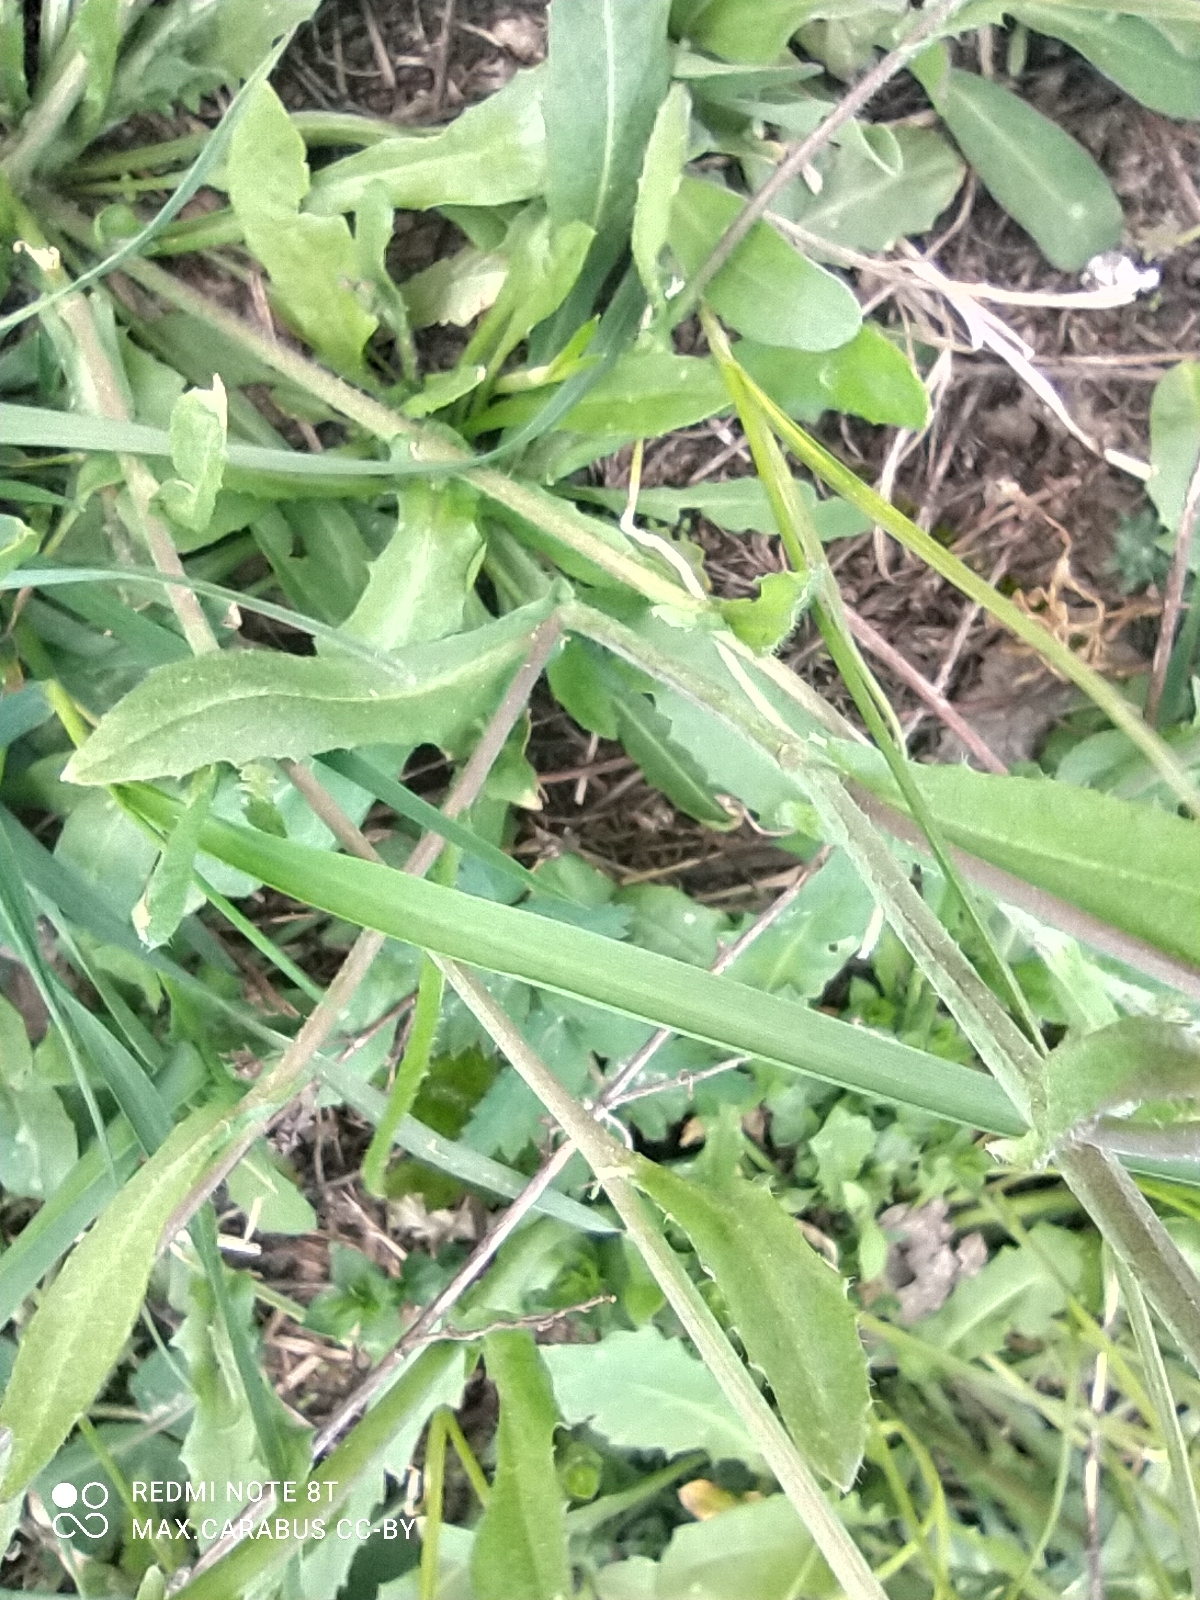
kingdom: Plantae
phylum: Tracheophyta
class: Magnoliopsida
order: Brassicales
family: Brassicaceae
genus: Capsella
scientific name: Capsella bursa-pastoris
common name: Shepherd's purse
